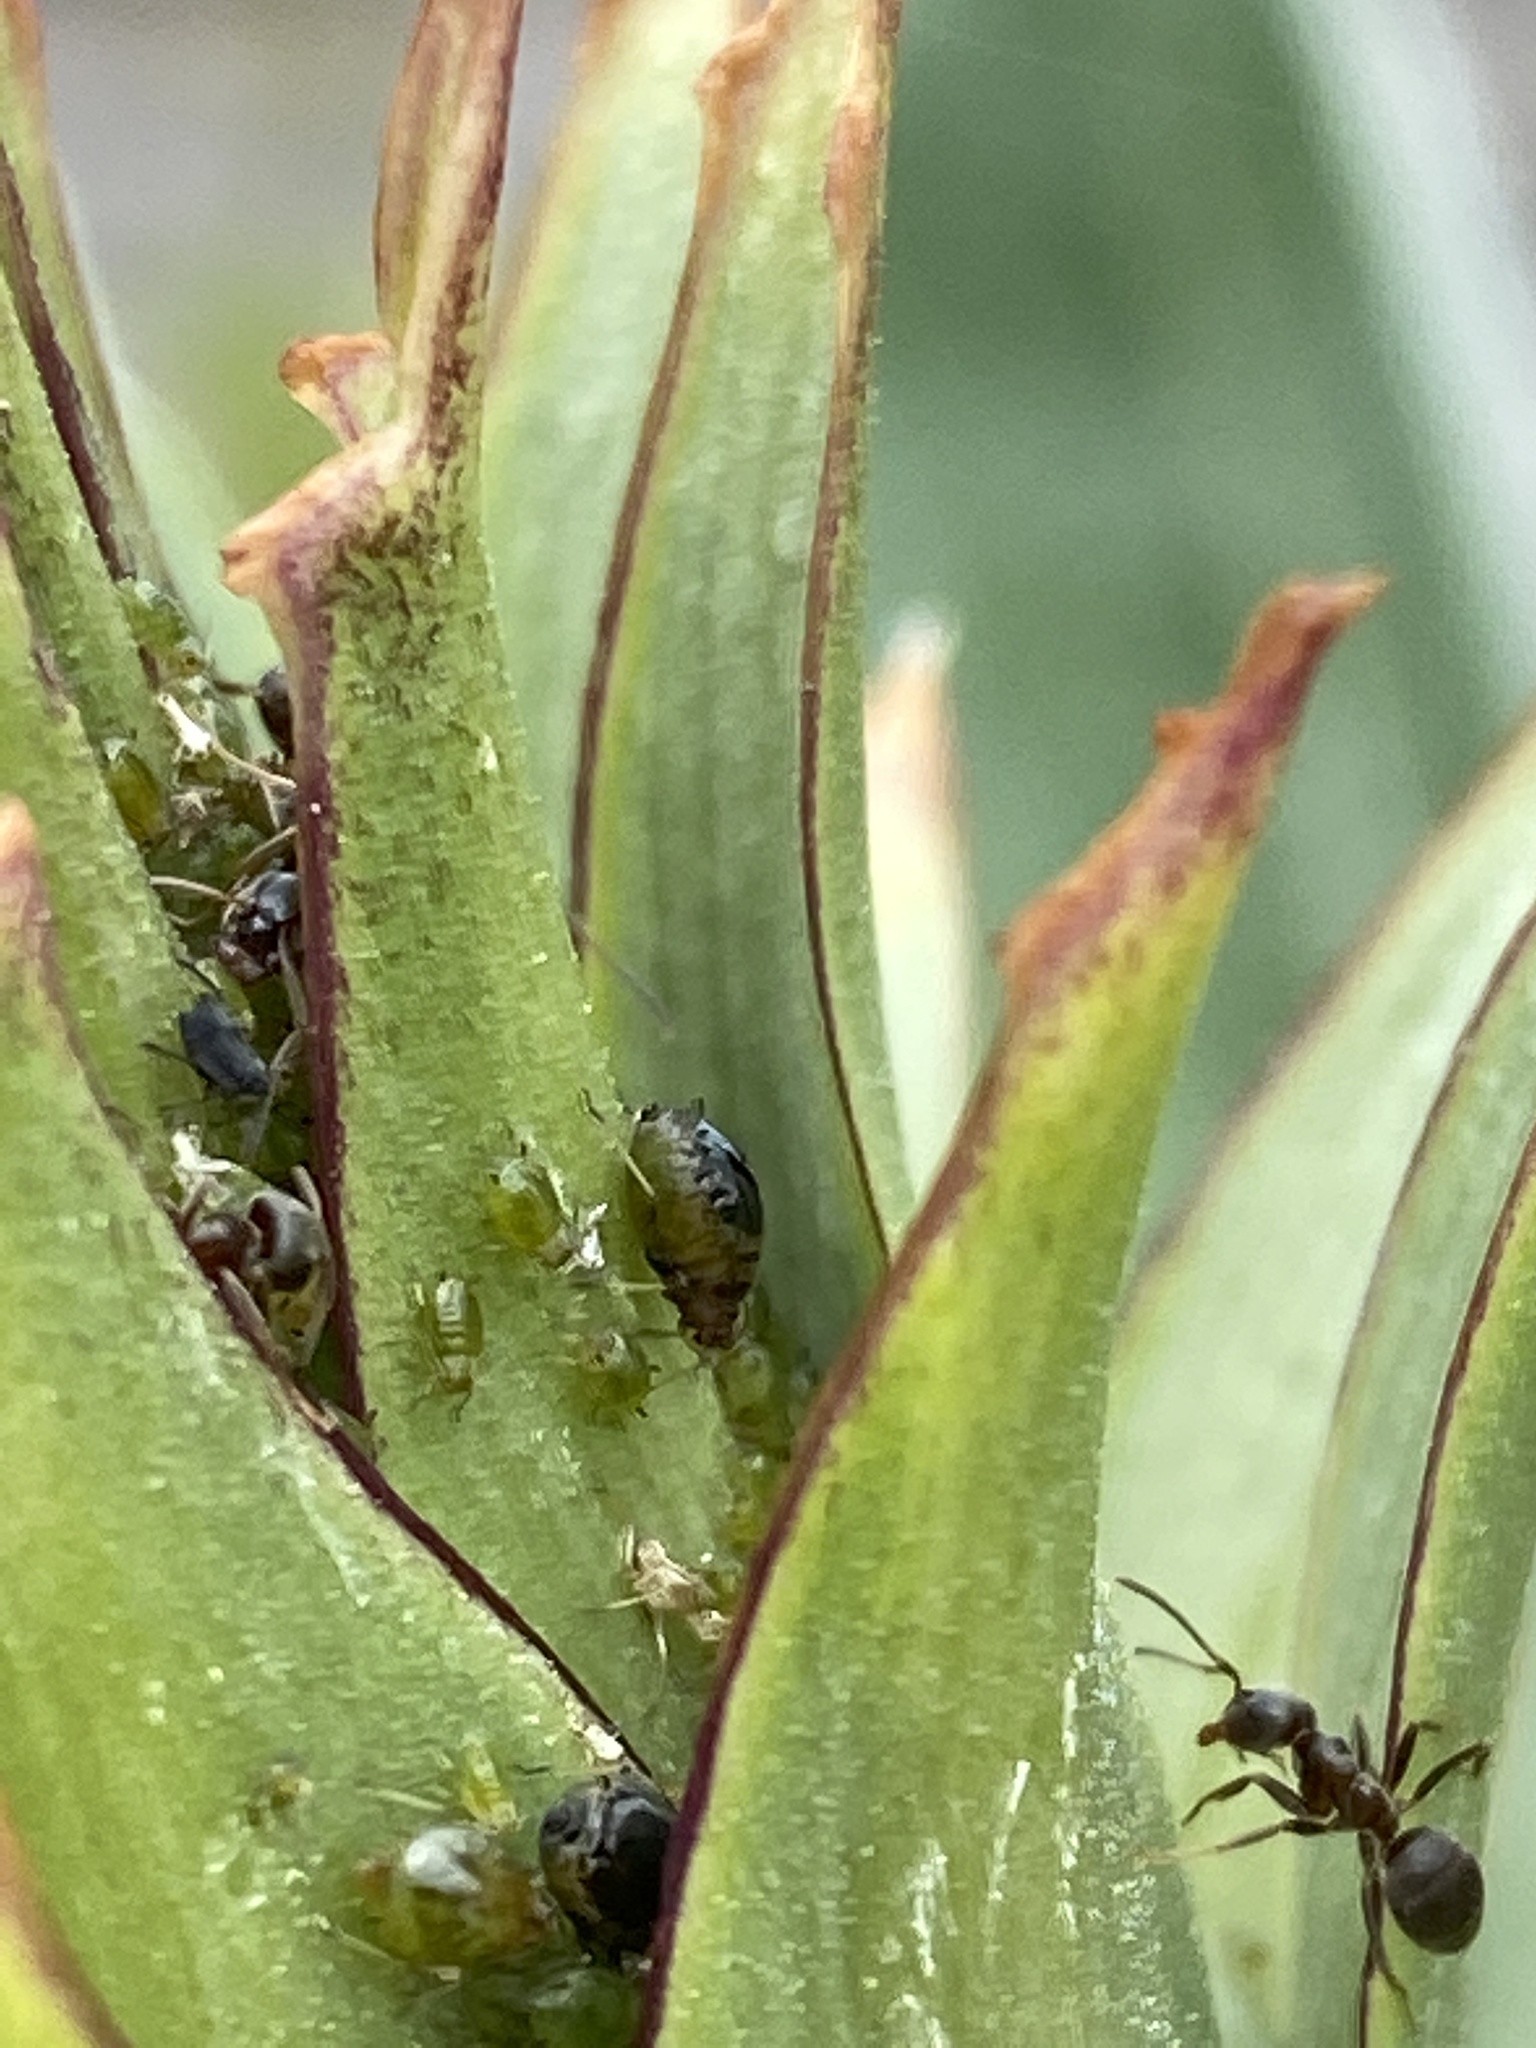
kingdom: Animalia
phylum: Arthropoda
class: Insecta
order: Hymenoptera
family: Formicidae
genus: Lasius
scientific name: Lasius niger
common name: Small black ant
